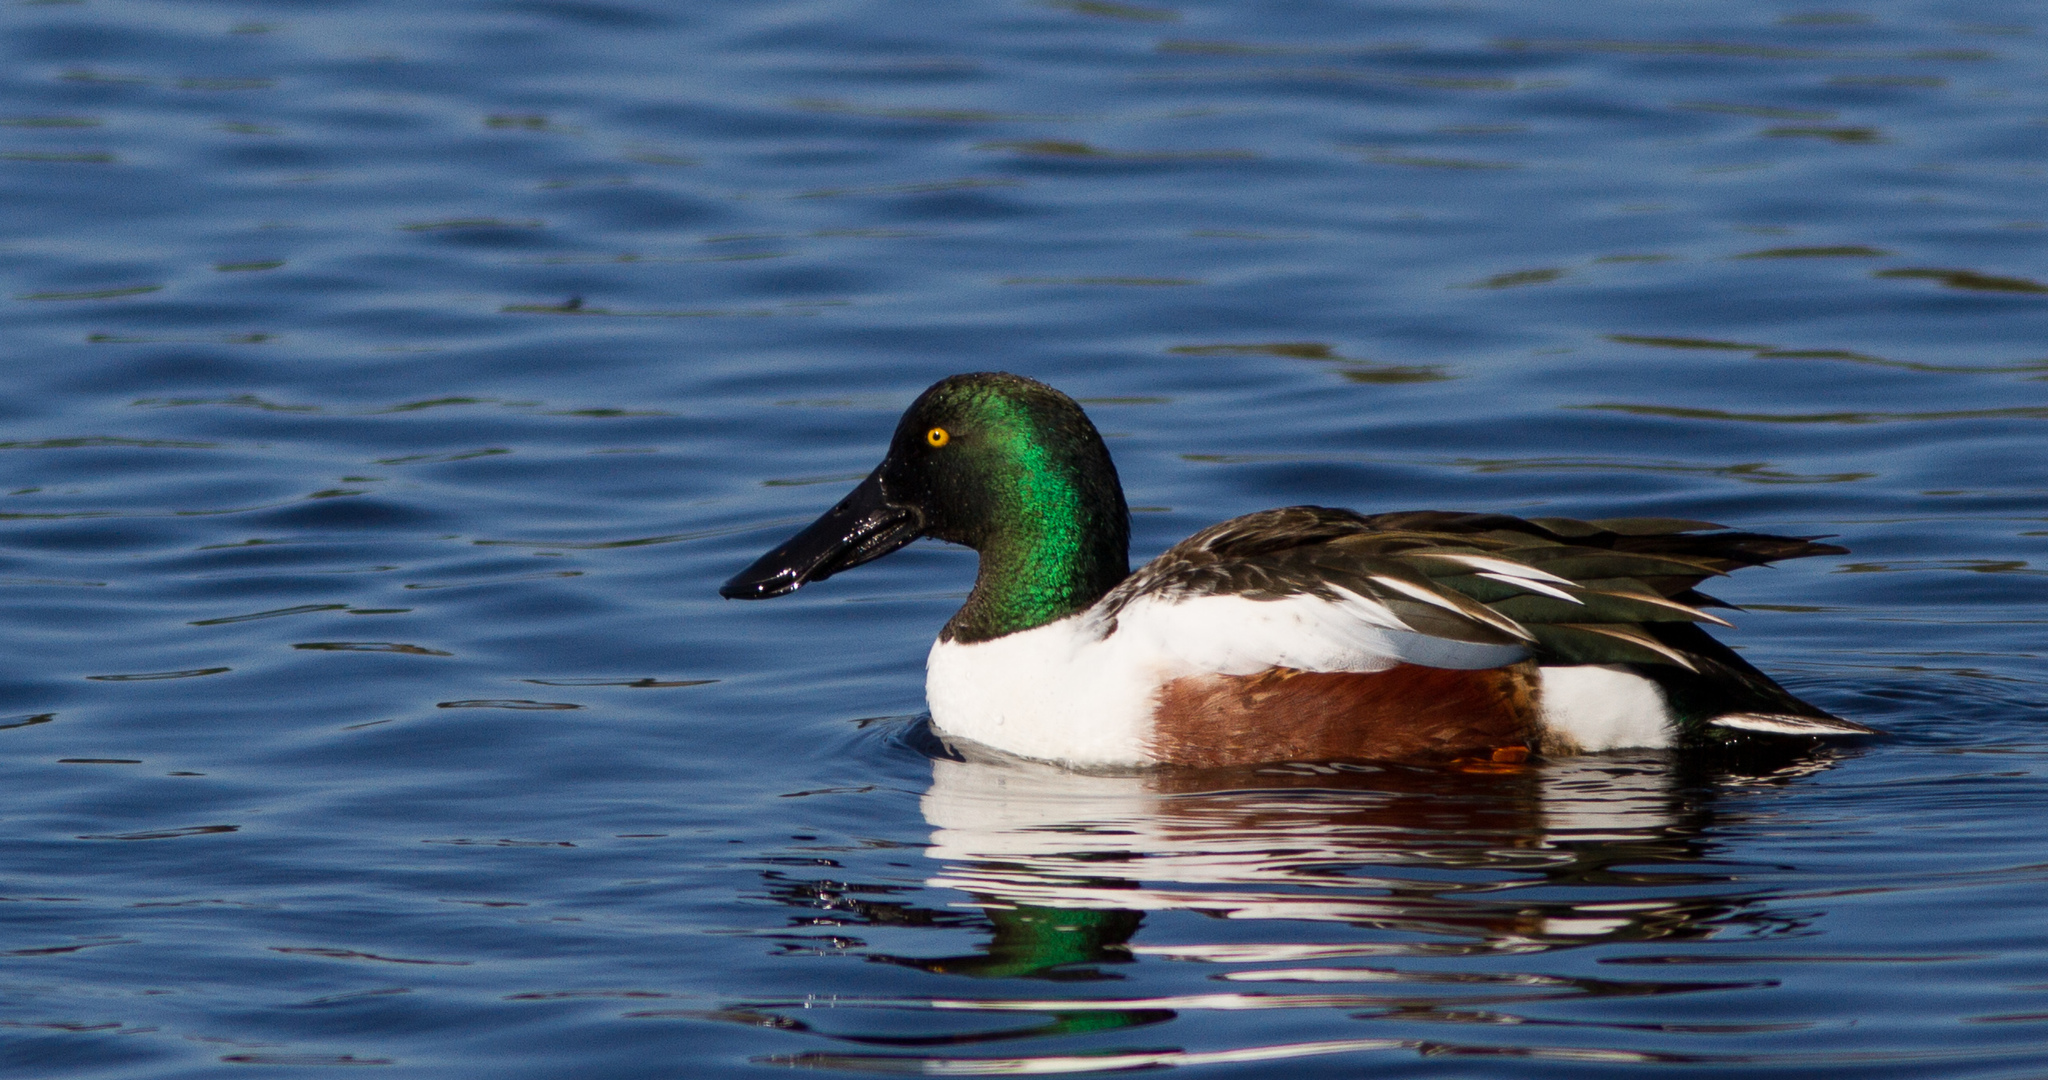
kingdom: Animalia
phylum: Chordata
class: Aves
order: Anseriformes
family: Anatidae
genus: Spatula
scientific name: Spatula clypeata
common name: Northern shoveler
